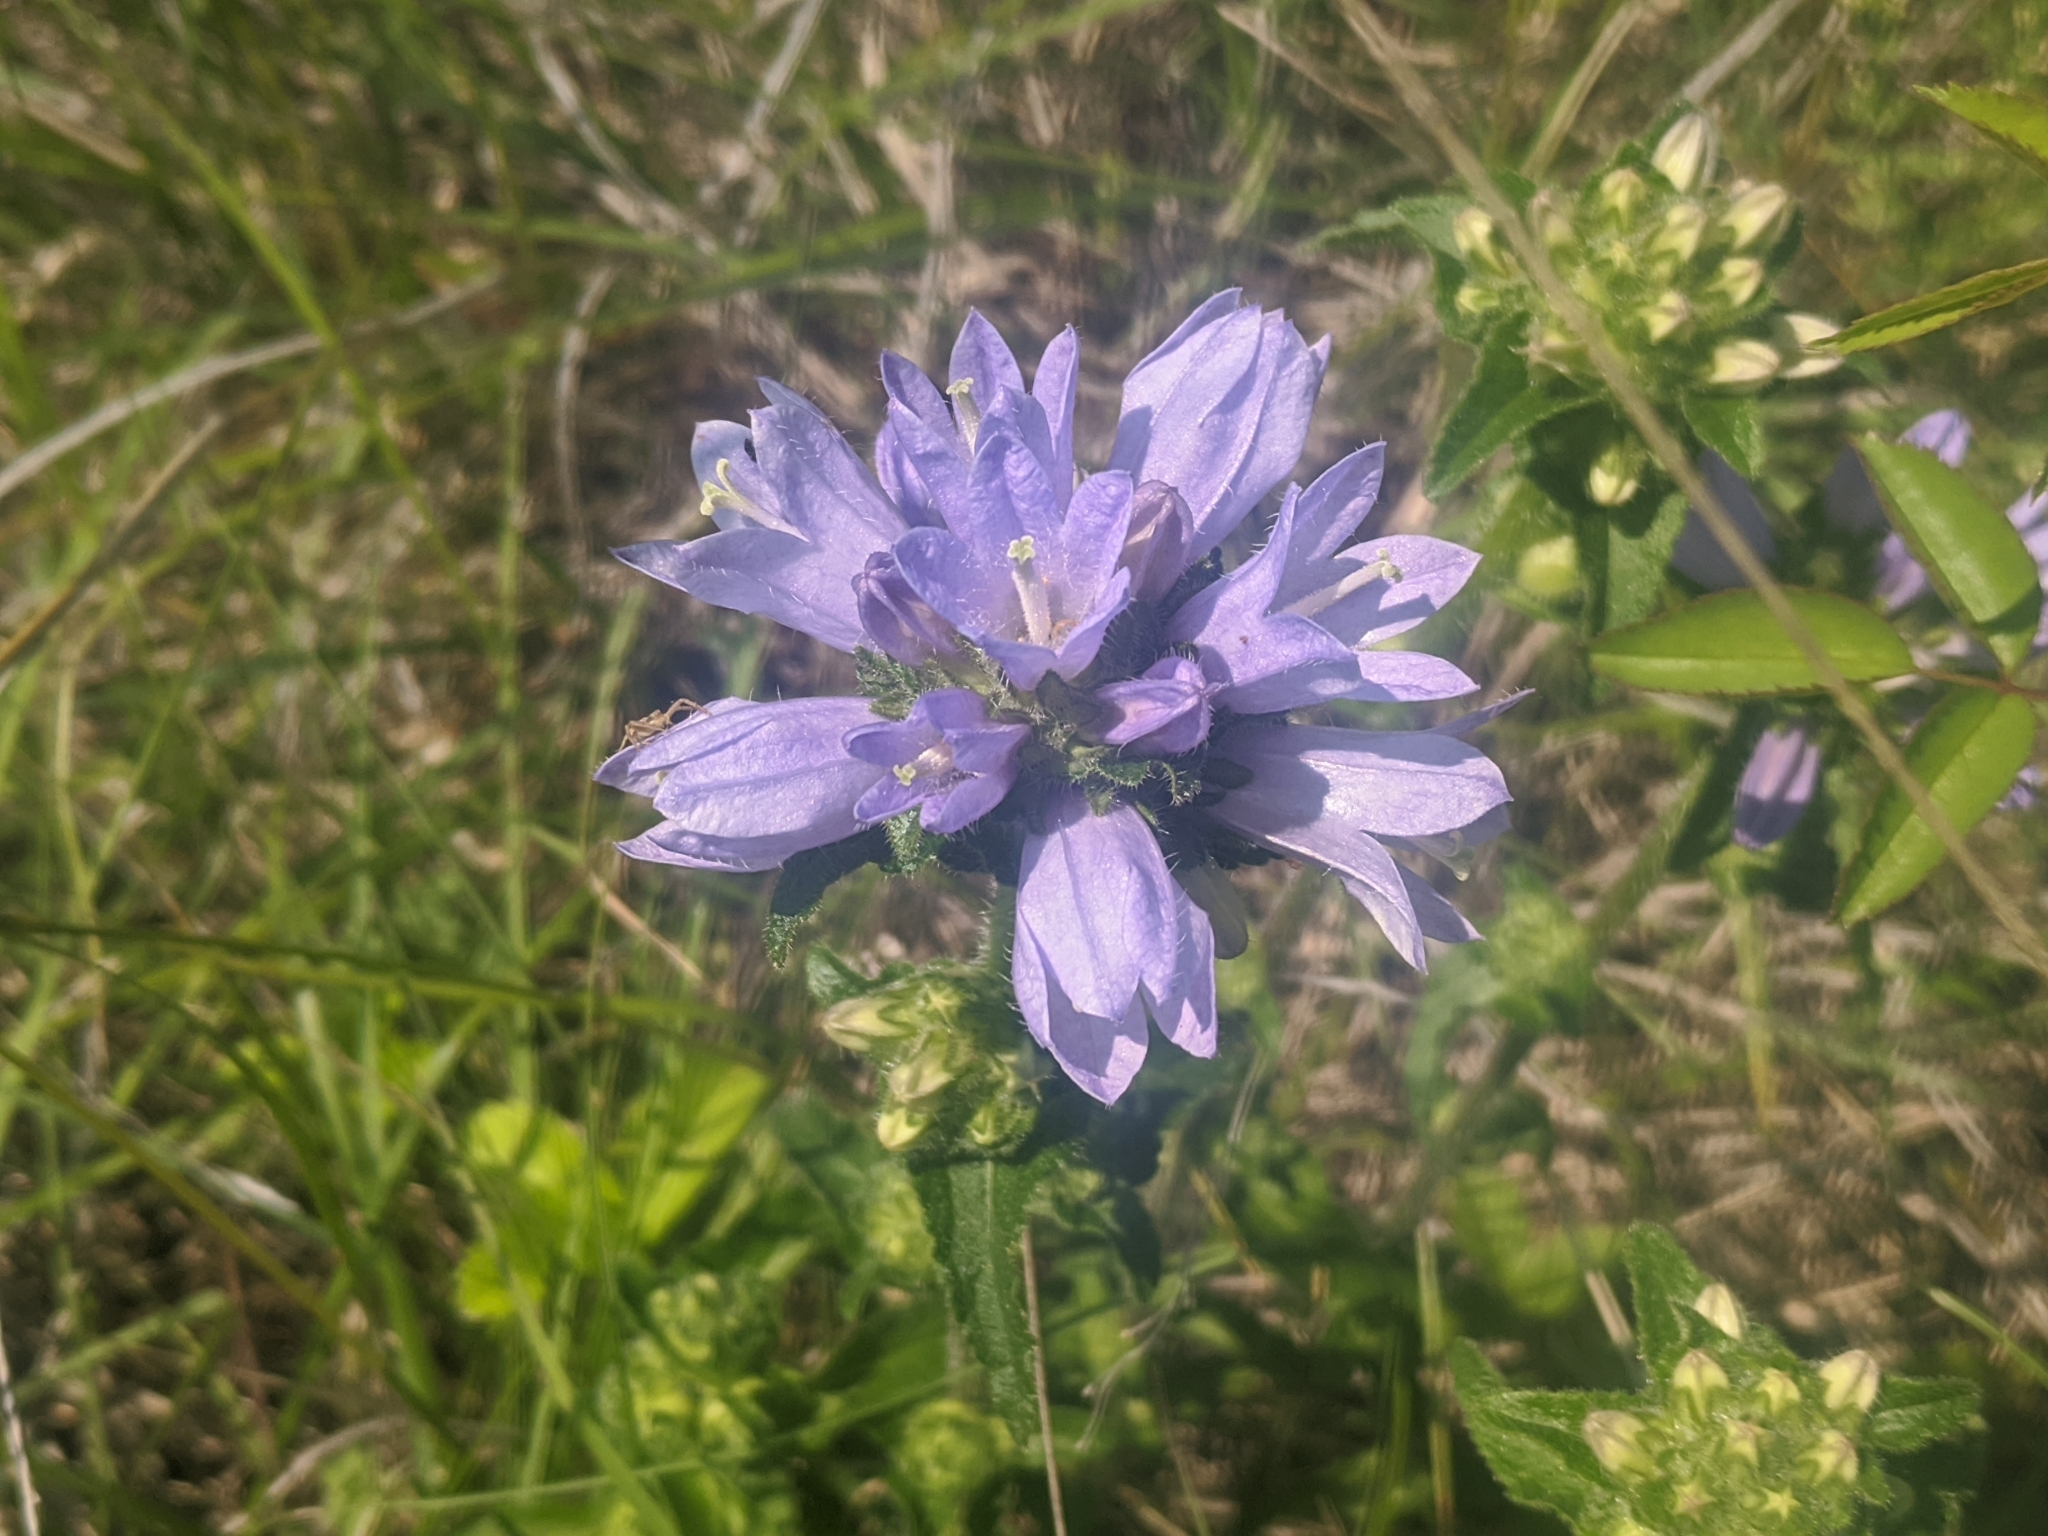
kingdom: Plantae
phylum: Tracheophyta
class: Magnoliopsida
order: Asterales
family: Campanulaceae
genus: Campanula
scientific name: Campanula cervicaria
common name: Bristly bellflower
